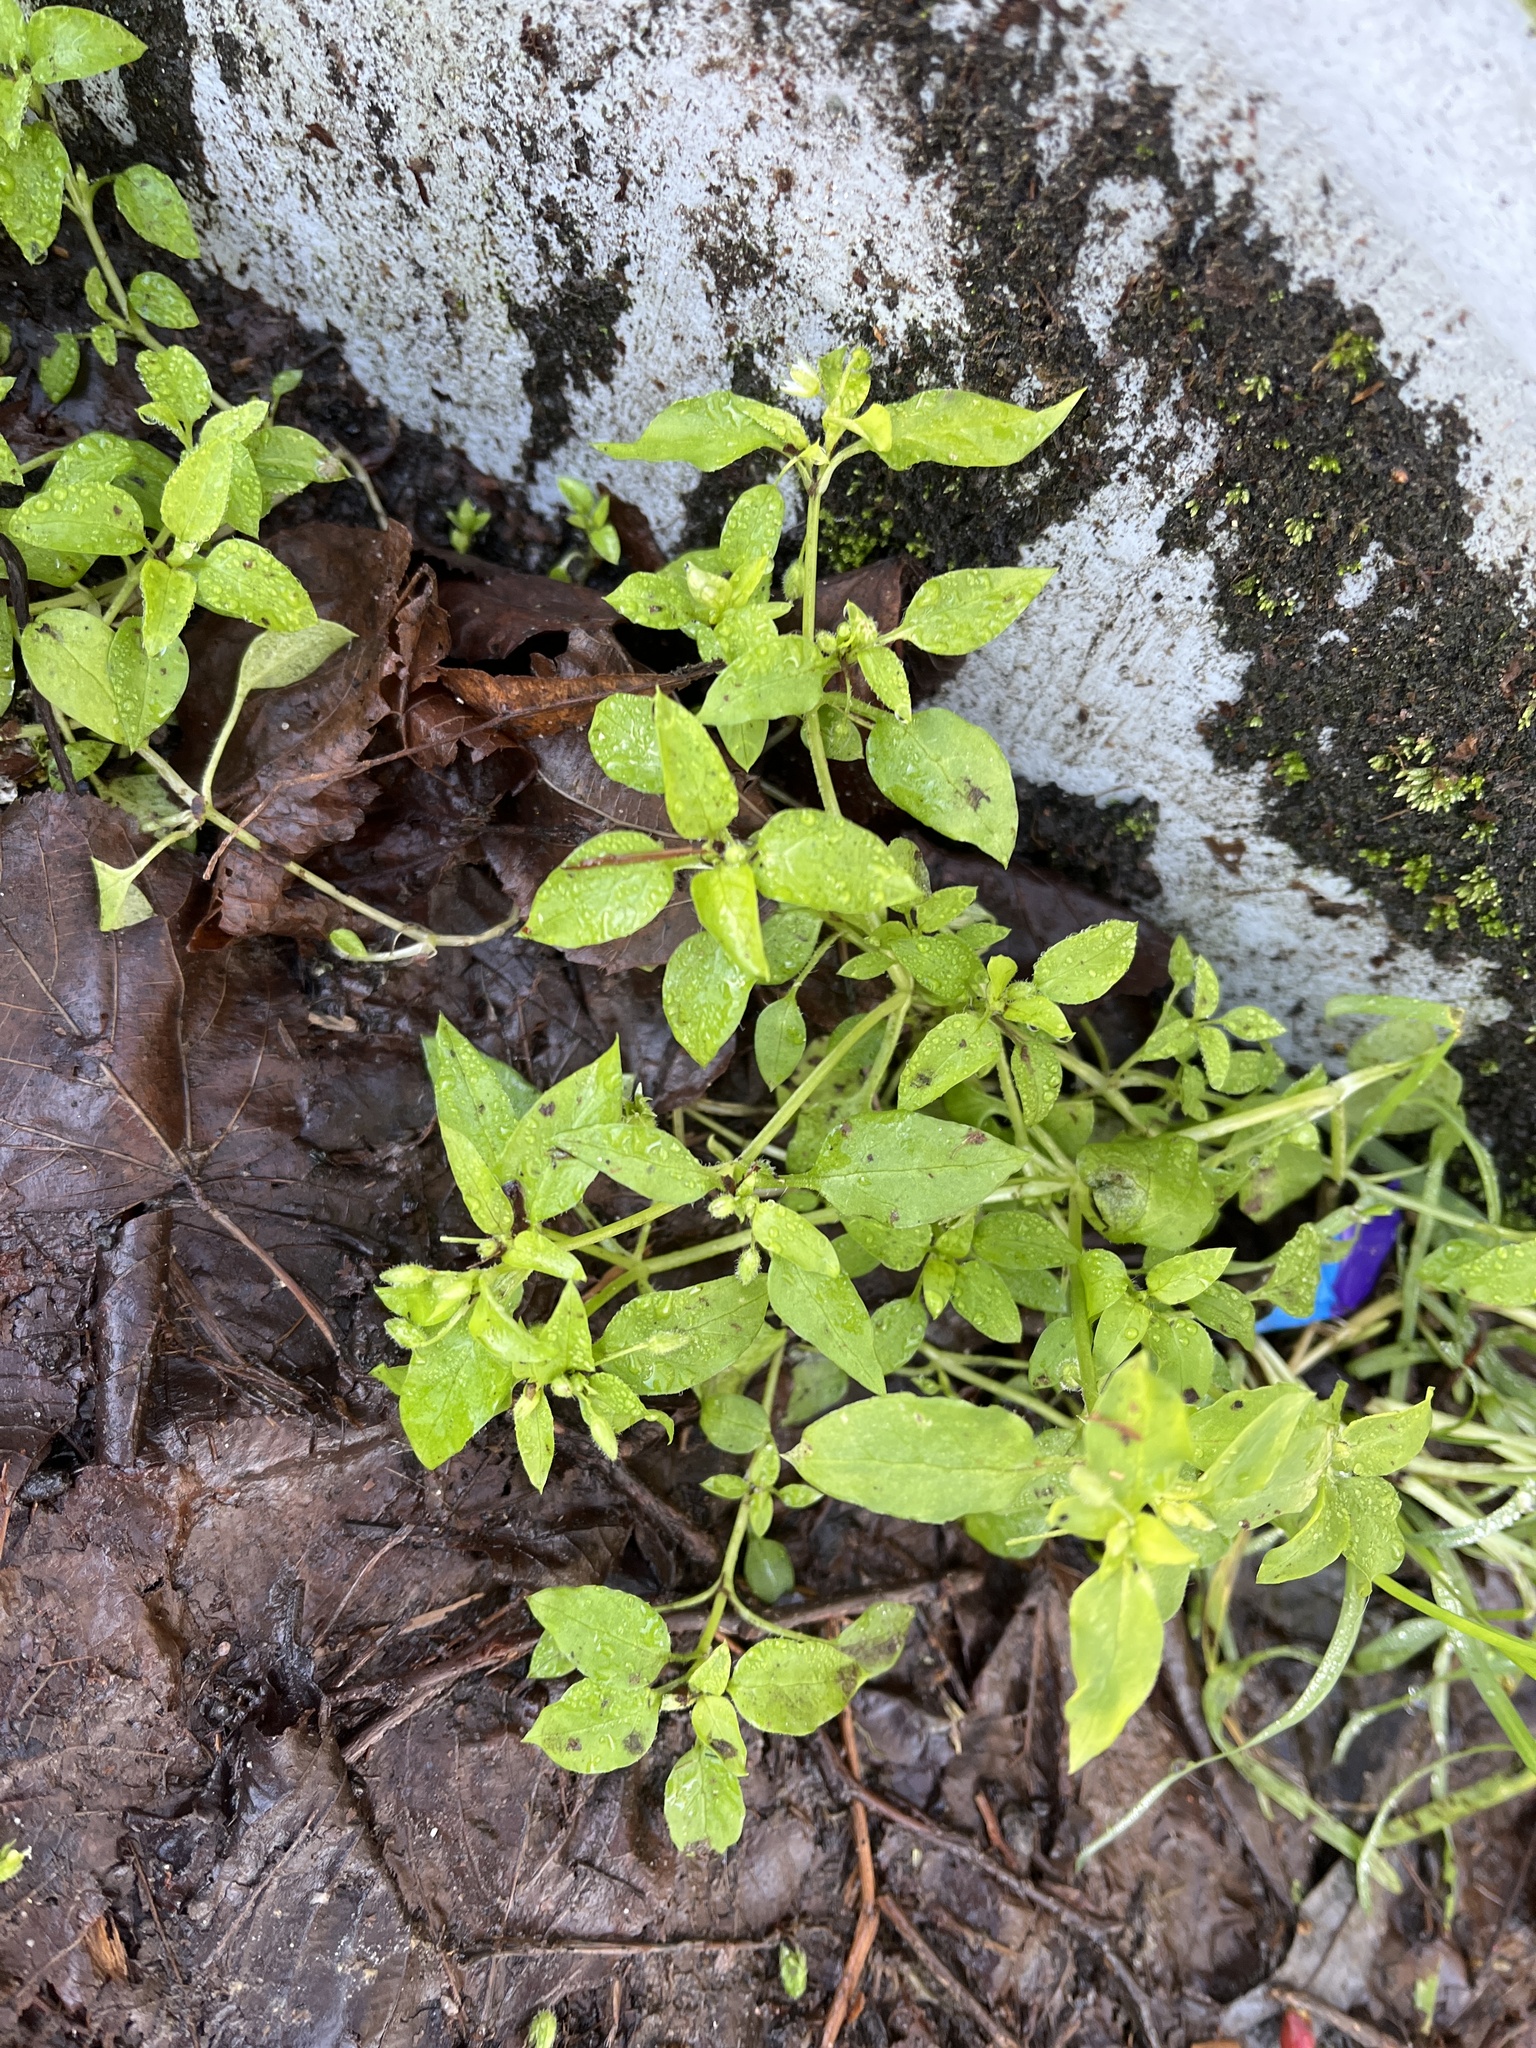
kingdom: Plantae
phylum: Tracheophyta
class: Magnoliopsida
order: Caryophyllales
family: Caryophyllaceae
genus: Stellaria
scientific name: Stellaria media
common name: Common chickweed
